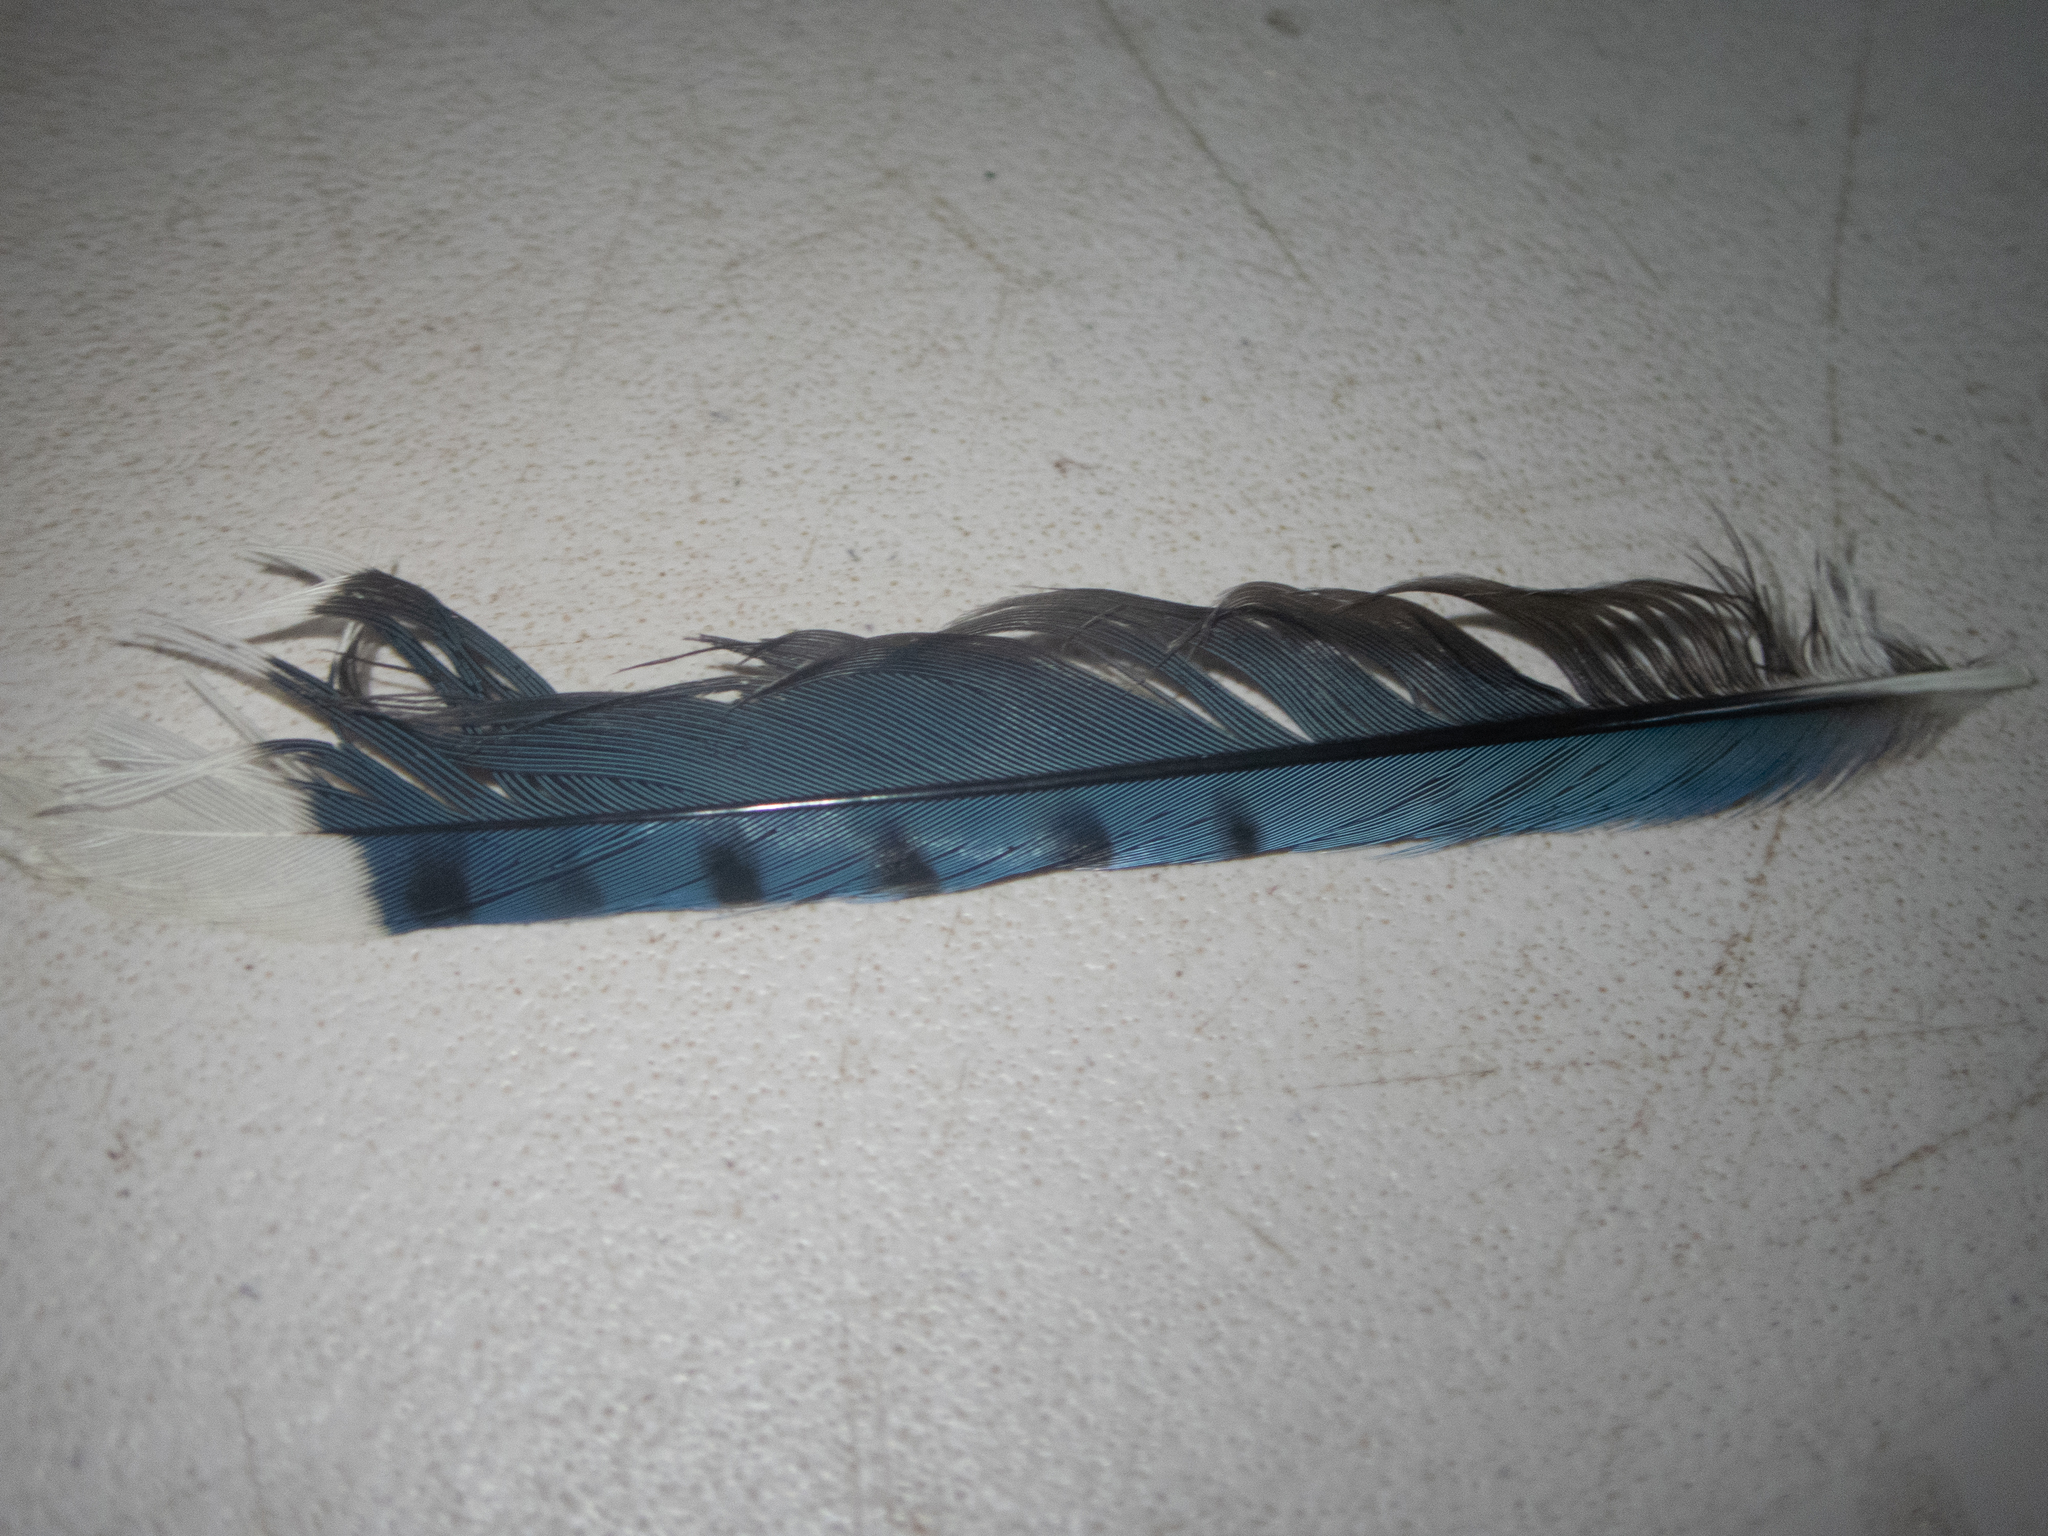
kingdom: Animalia
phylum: Chordata
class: Aves
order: Passeriformes
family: Corvidae
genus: Cyanocitta
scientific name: Cyanocitta cristata
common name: Blue jay
